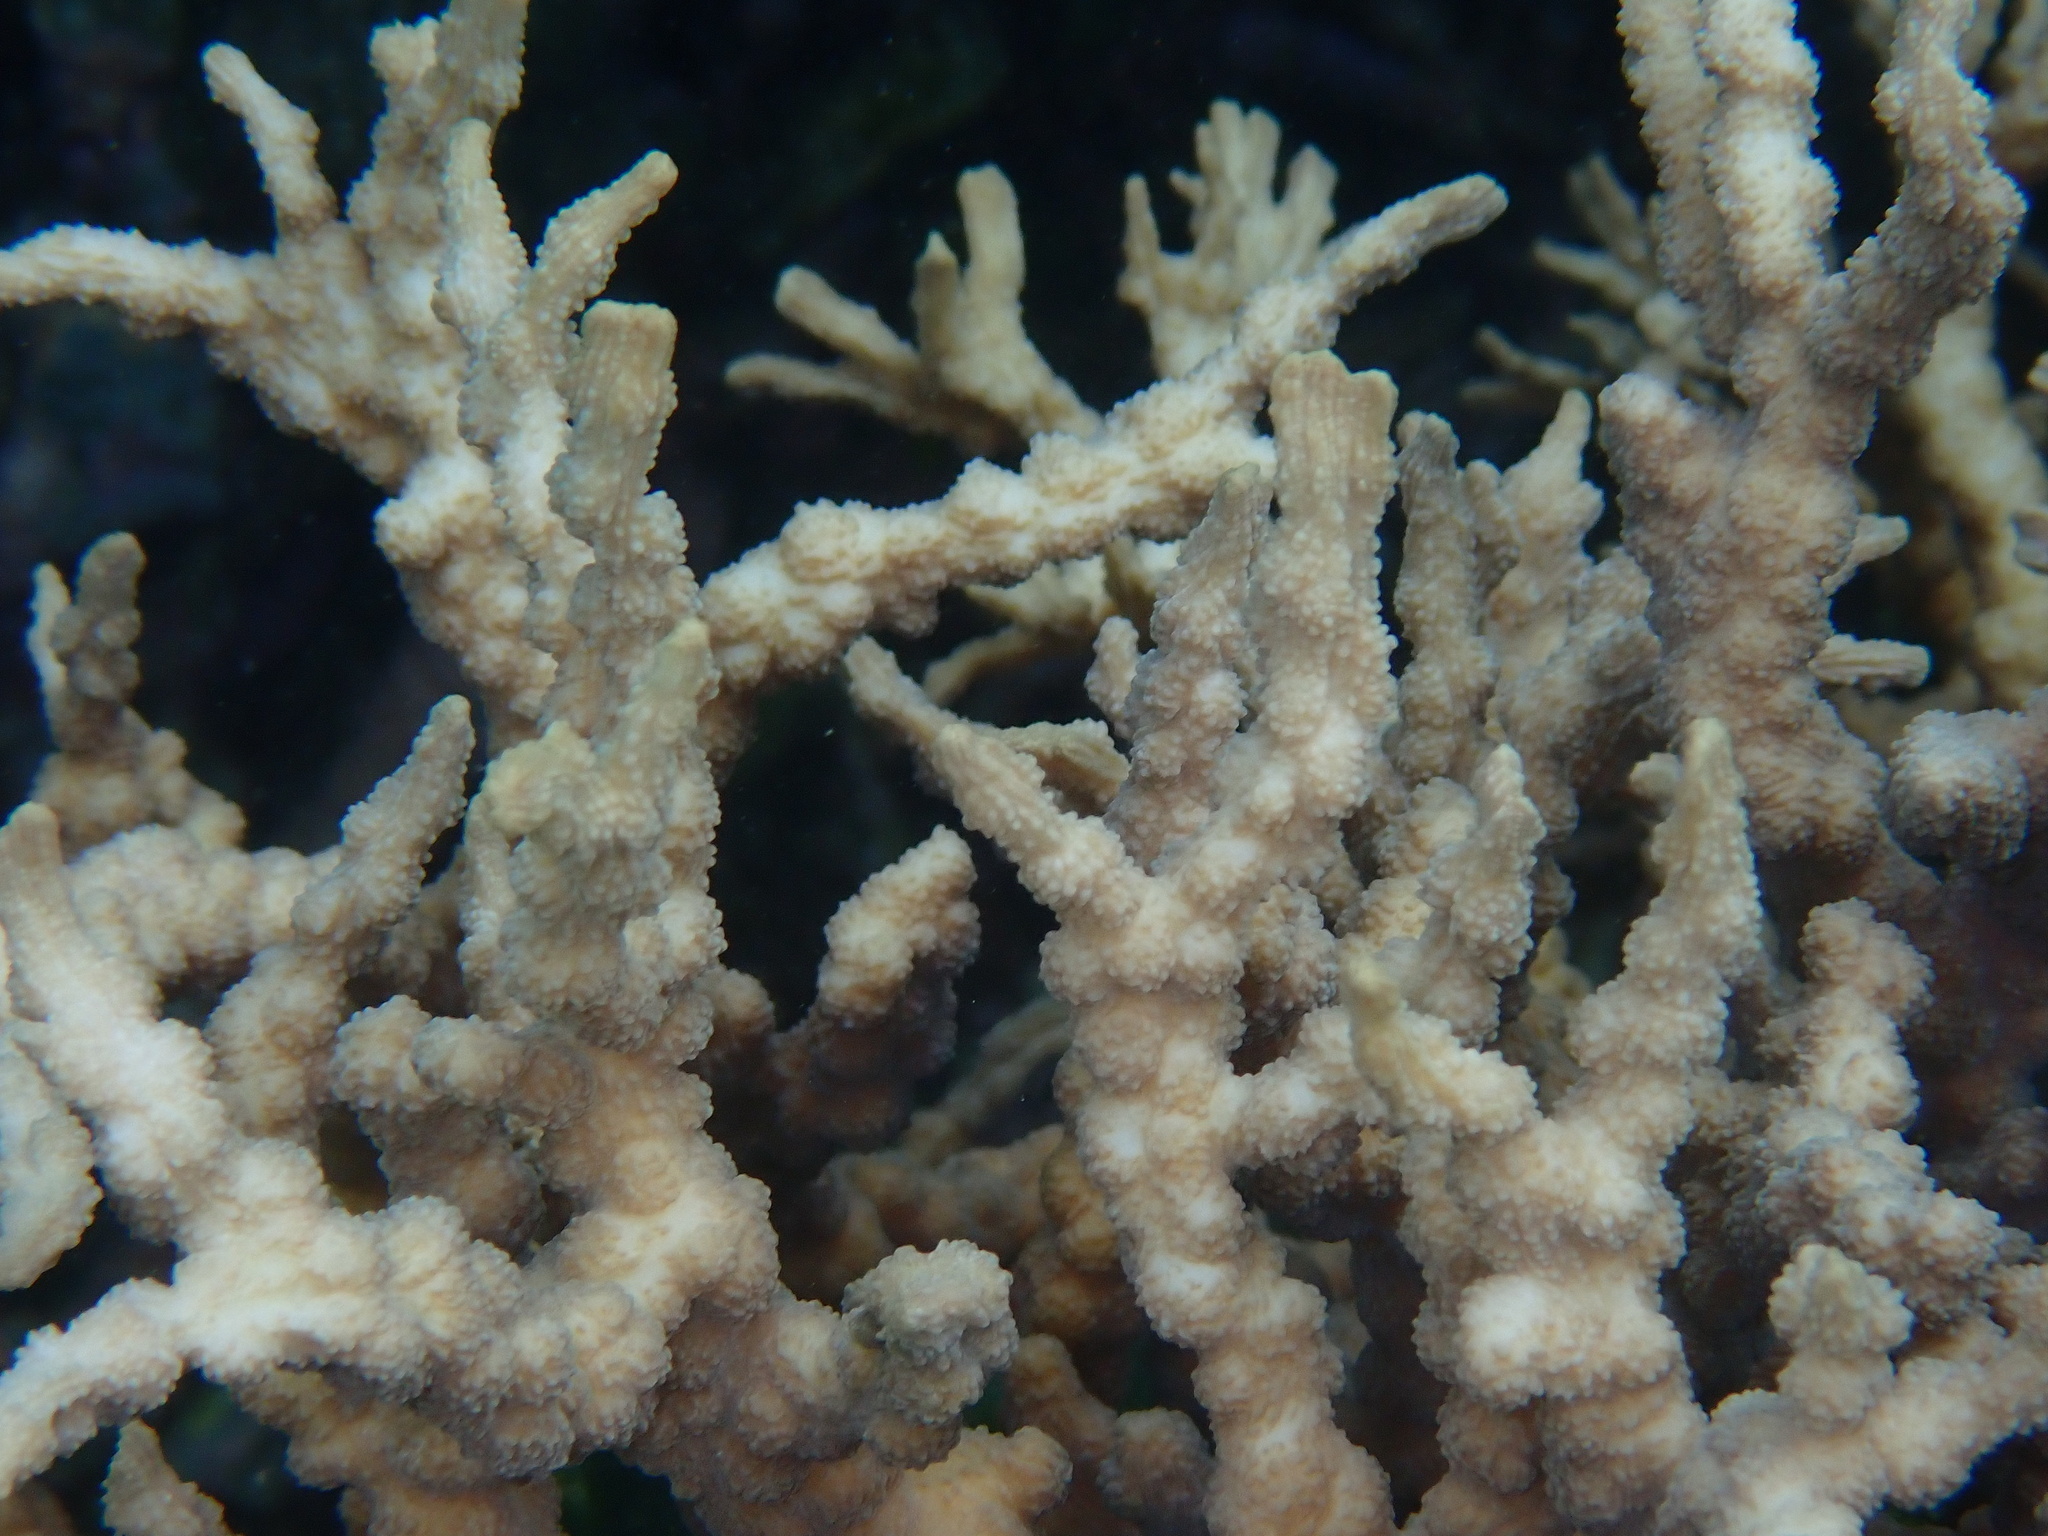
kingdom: Animalia
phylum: Cnidaria
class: Anthozoa
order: Scleractinia
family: Merulinidae
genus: Echinopora
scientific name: Echinopora horrida
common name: Hedgehog coral
